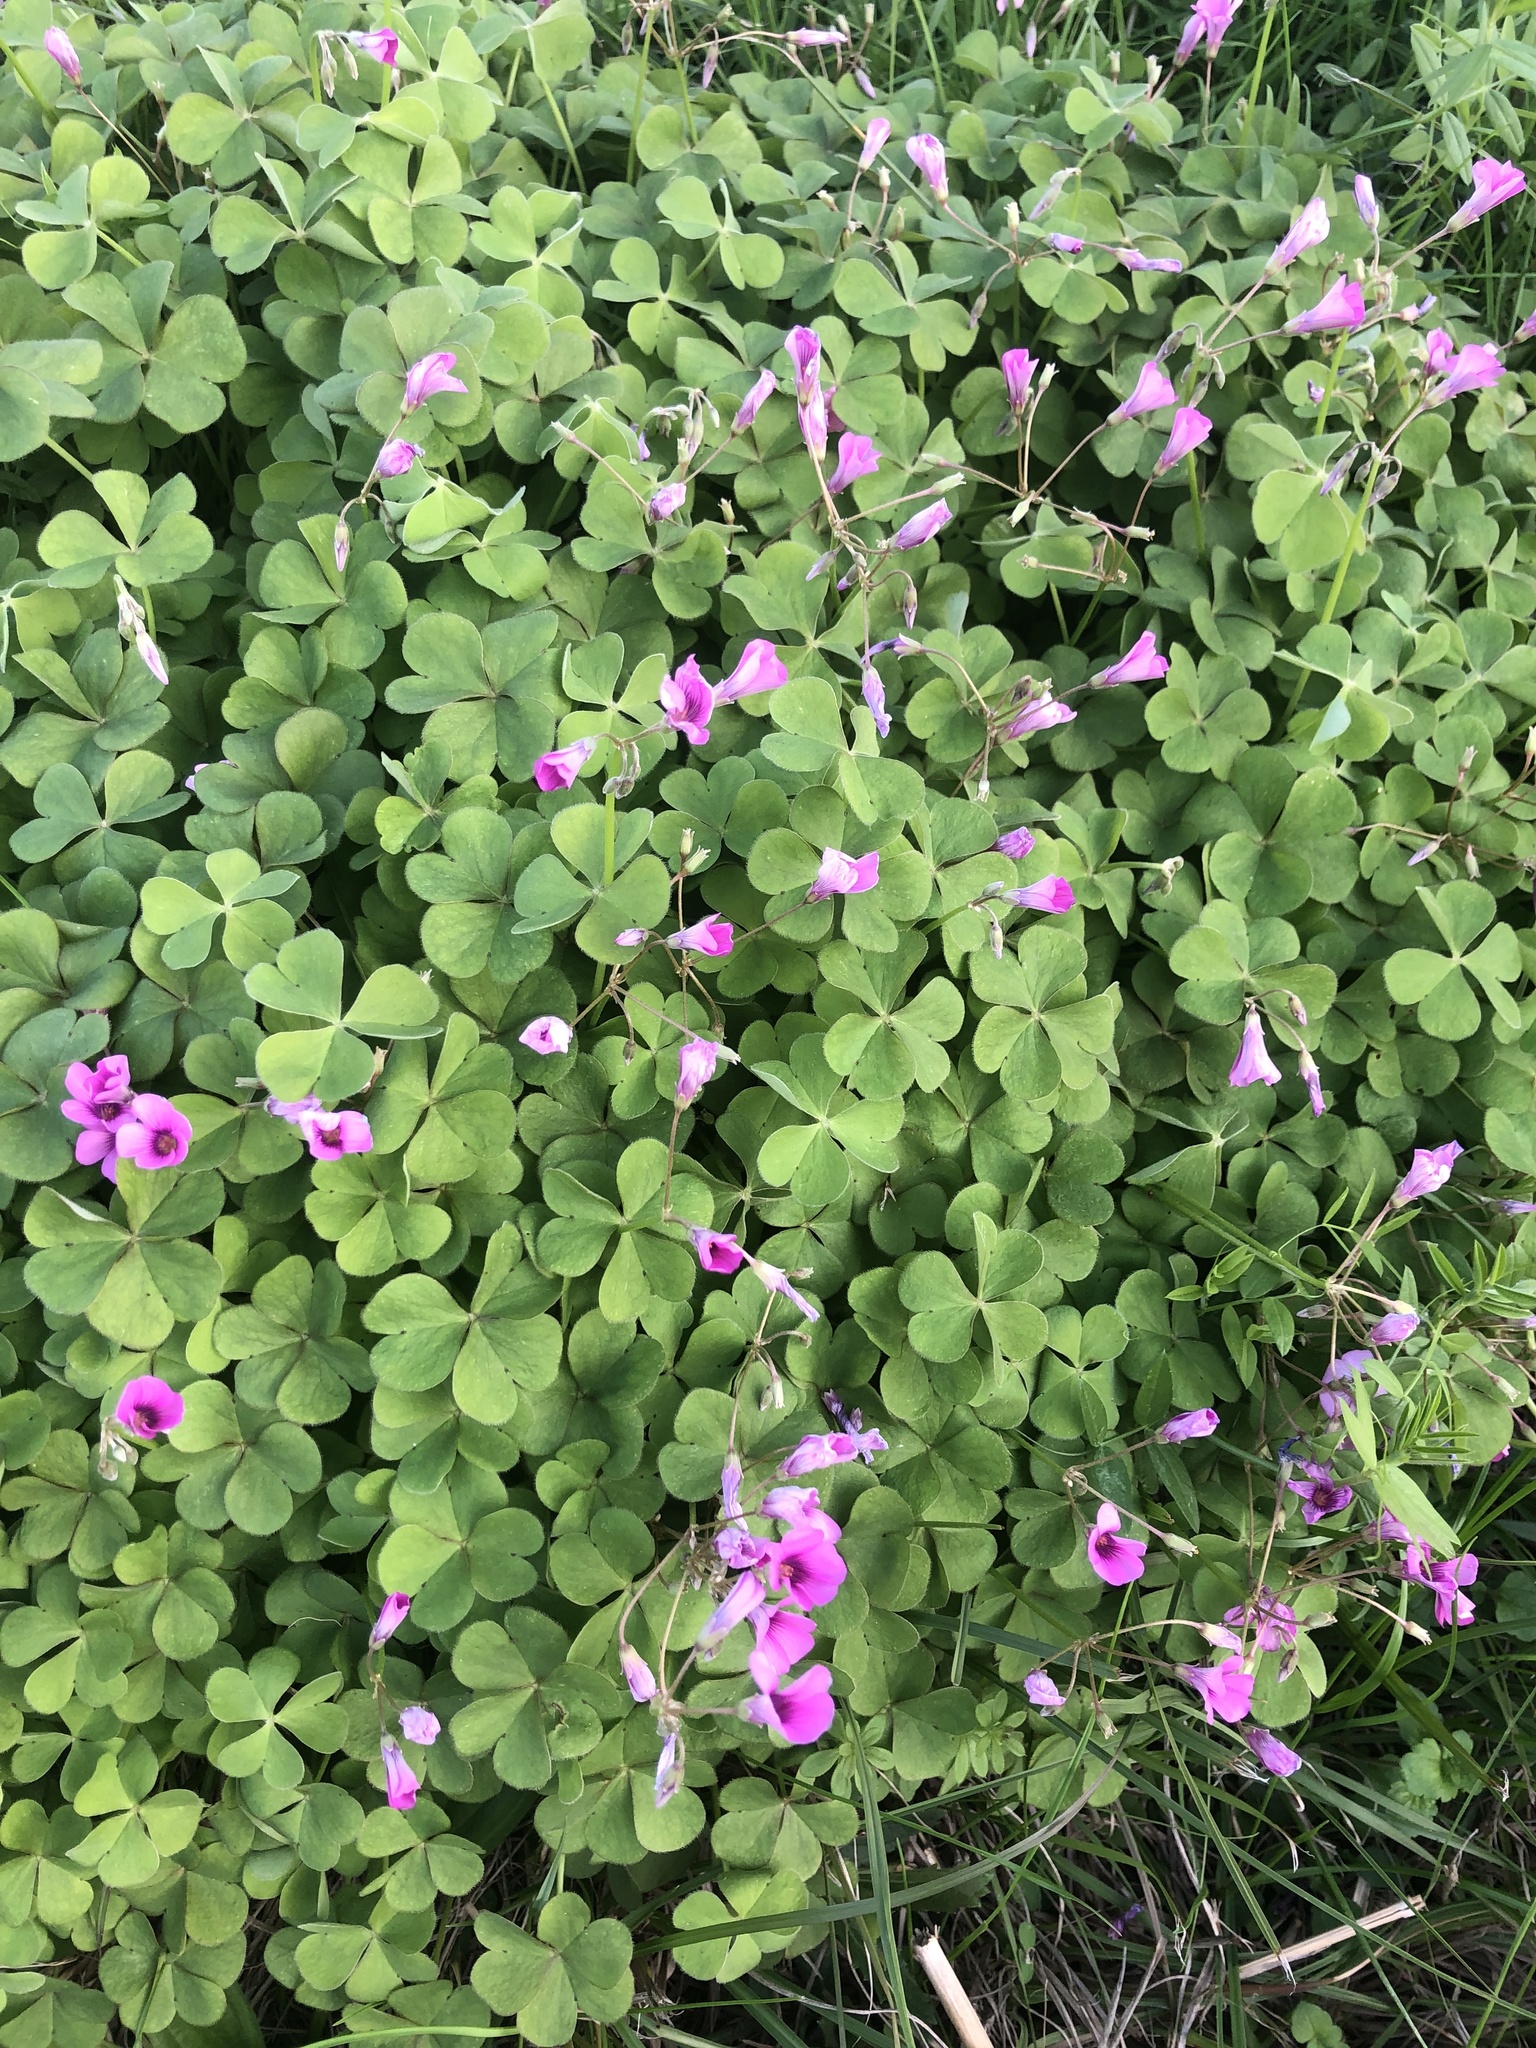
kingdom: Plantae
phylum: Tracheophyta
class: Magnoliopsida
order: Oxalidales
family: Oxalidaceae
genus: Oxalis
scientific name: Oxalis articulata
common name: Pink-sorrel
